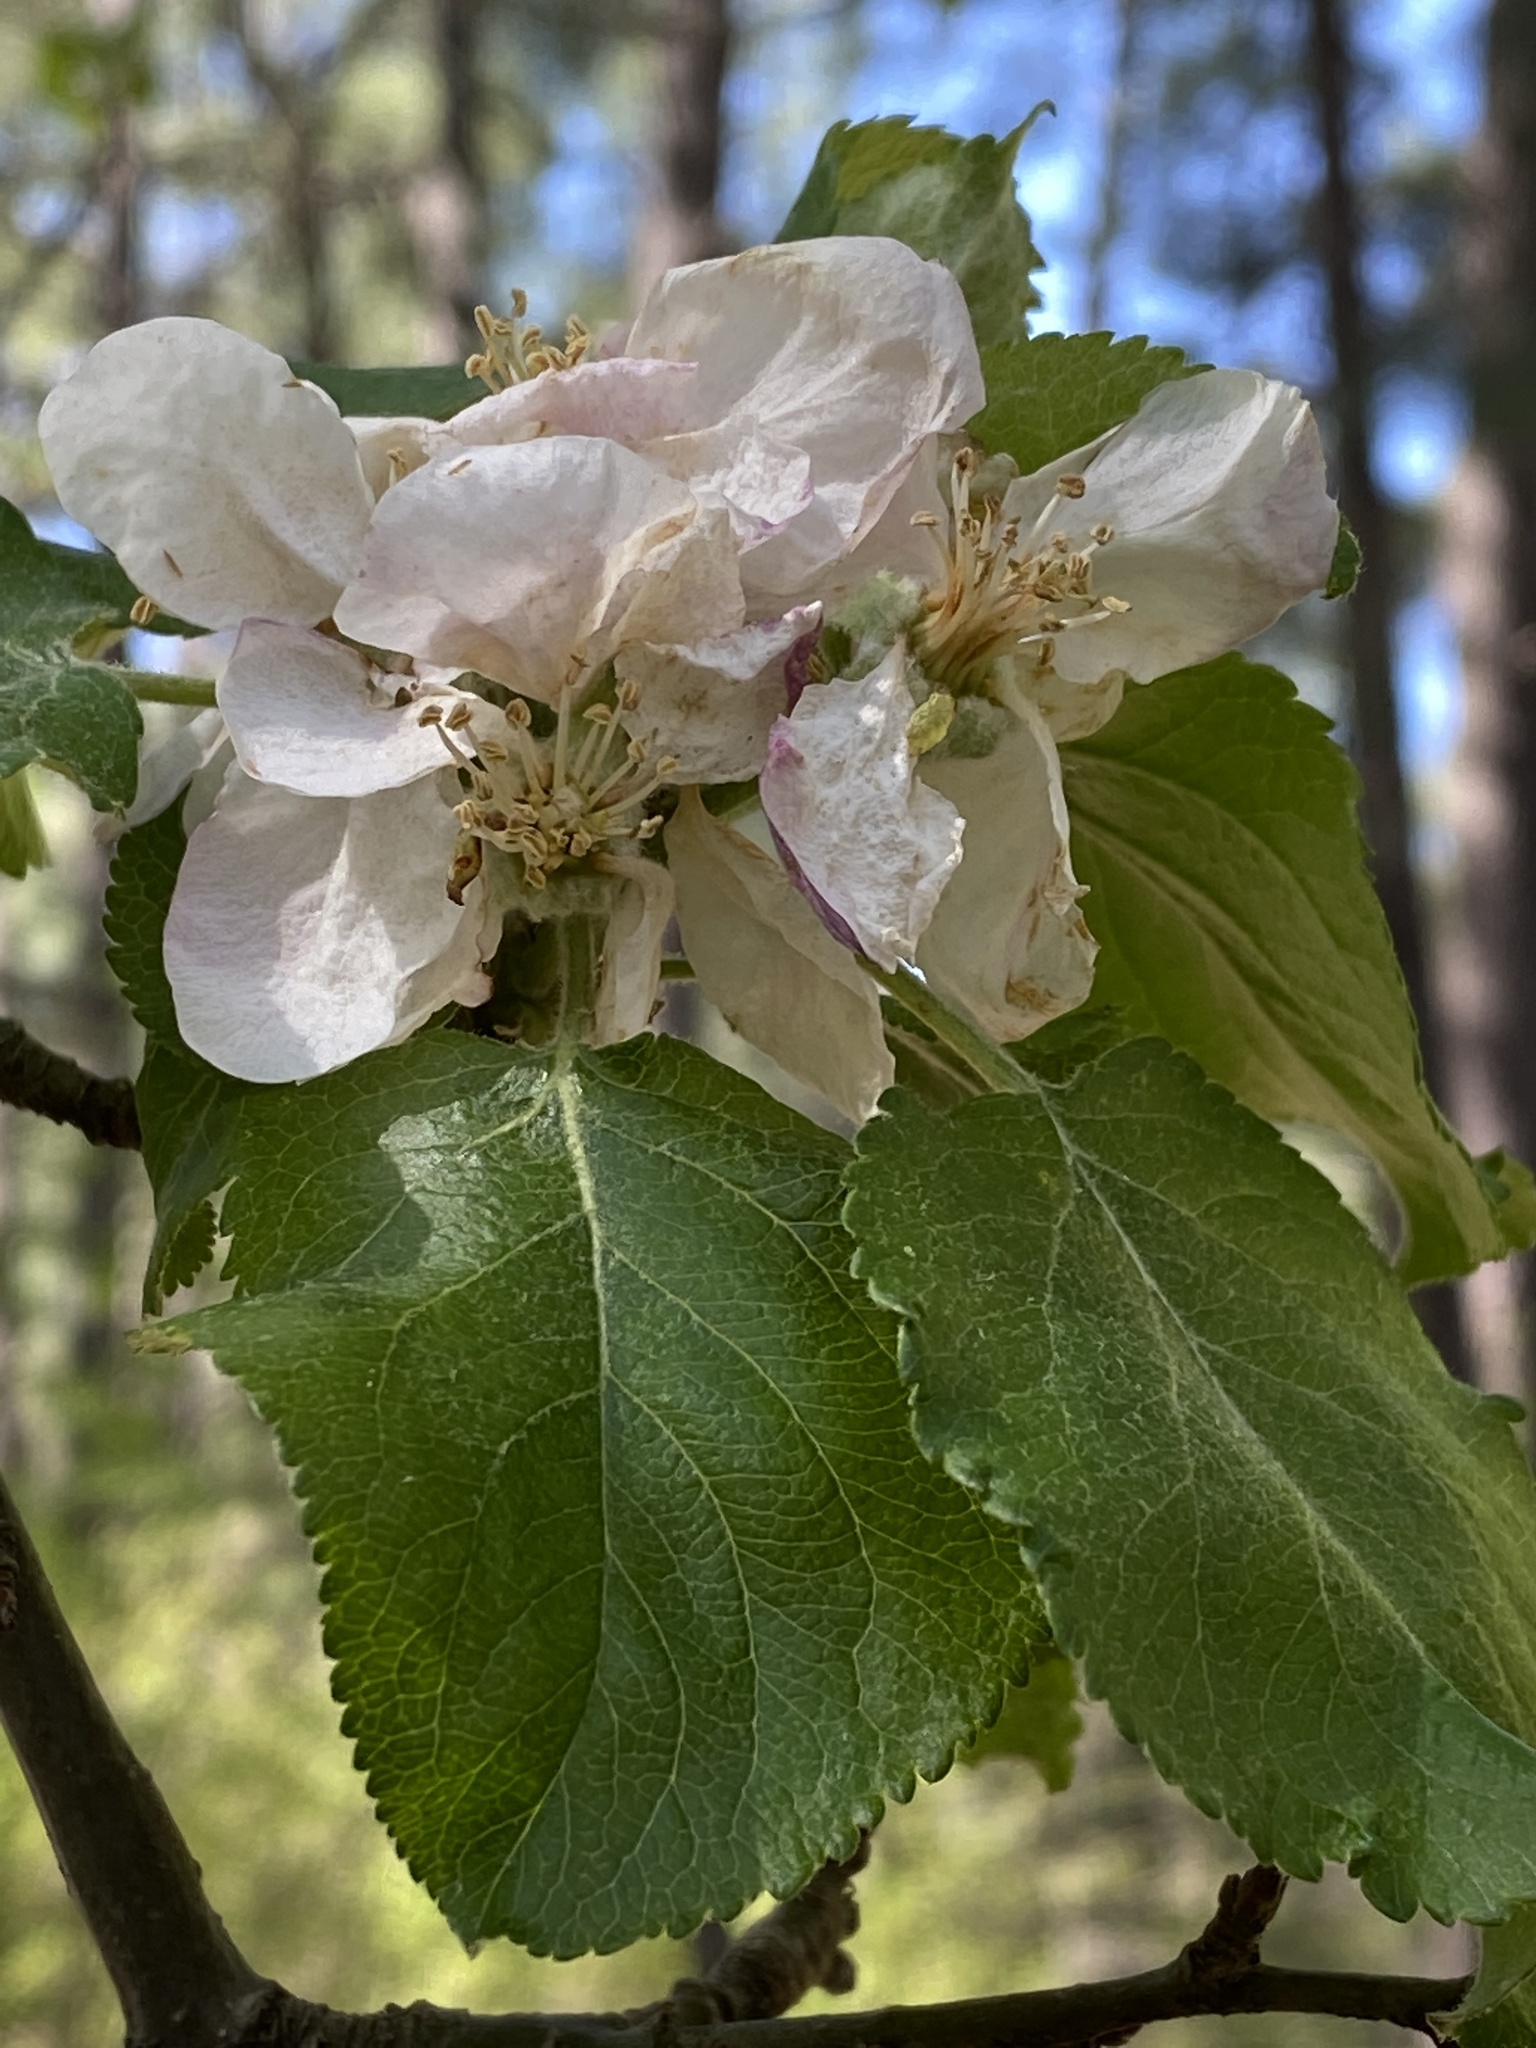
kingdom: Plantae
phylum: Tracheophyta
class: Magnoliopsida
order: Rosales
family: Rosaceae
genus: Malus
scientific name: Malus sylvestris
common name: Crab apple
